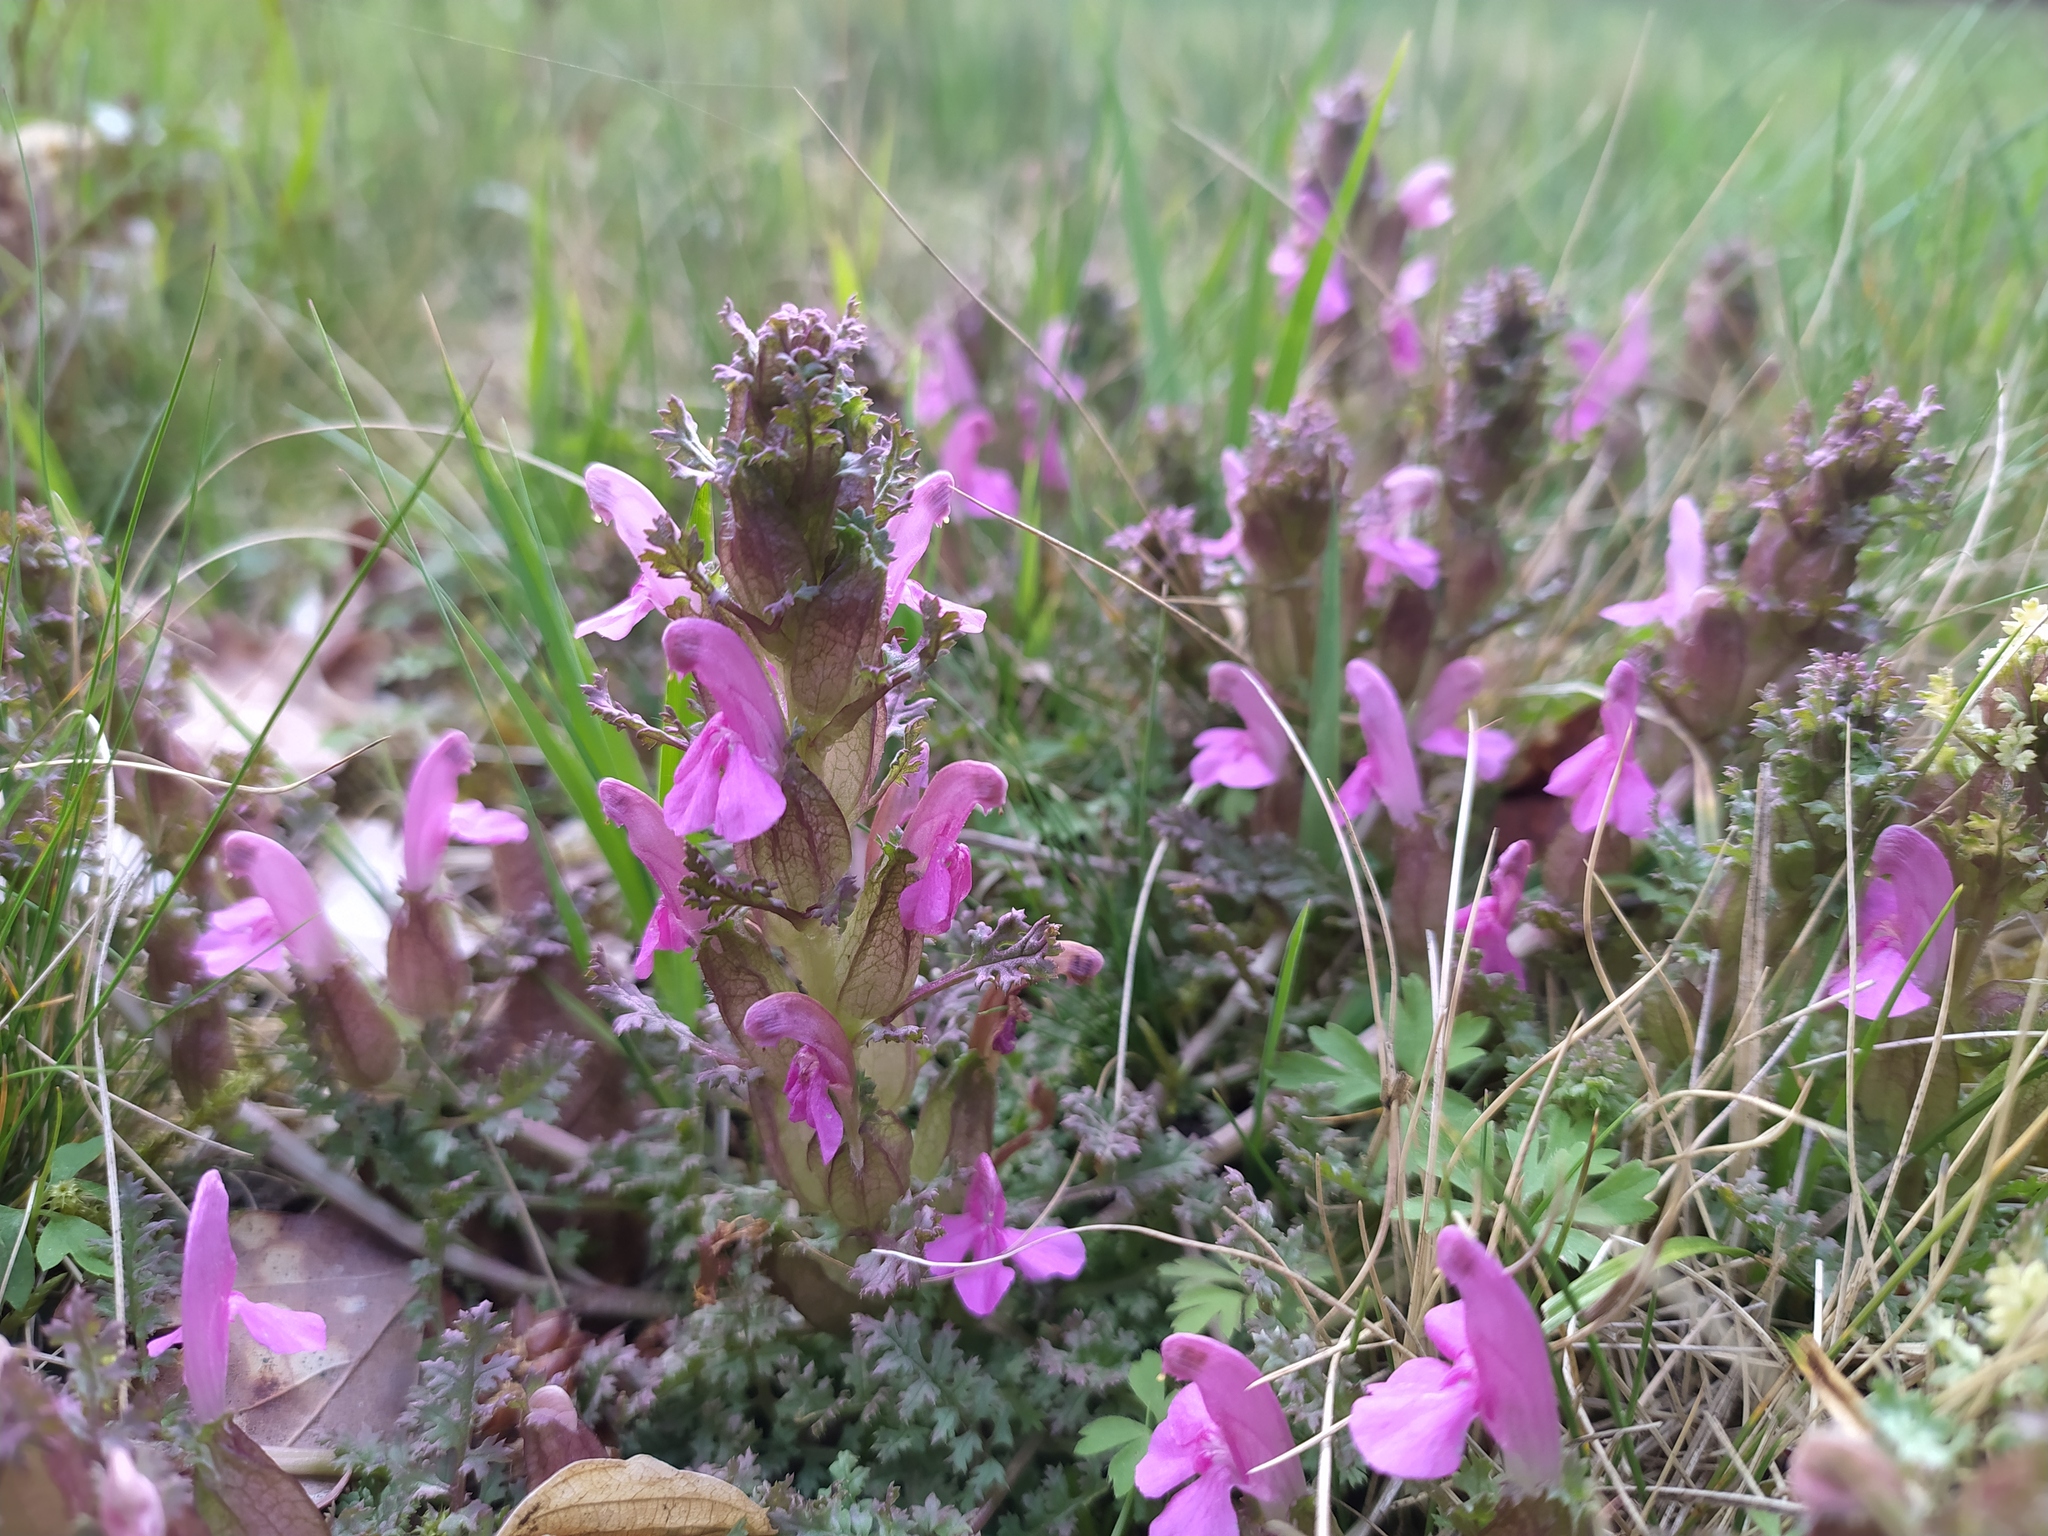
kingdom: Plantae
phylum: Tracheophyta
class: Magnoliopsida
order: Lamiales
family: Orobanchaceae
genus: Pedicularis
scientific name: Pedicularis sylvatica
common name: Lousewort
